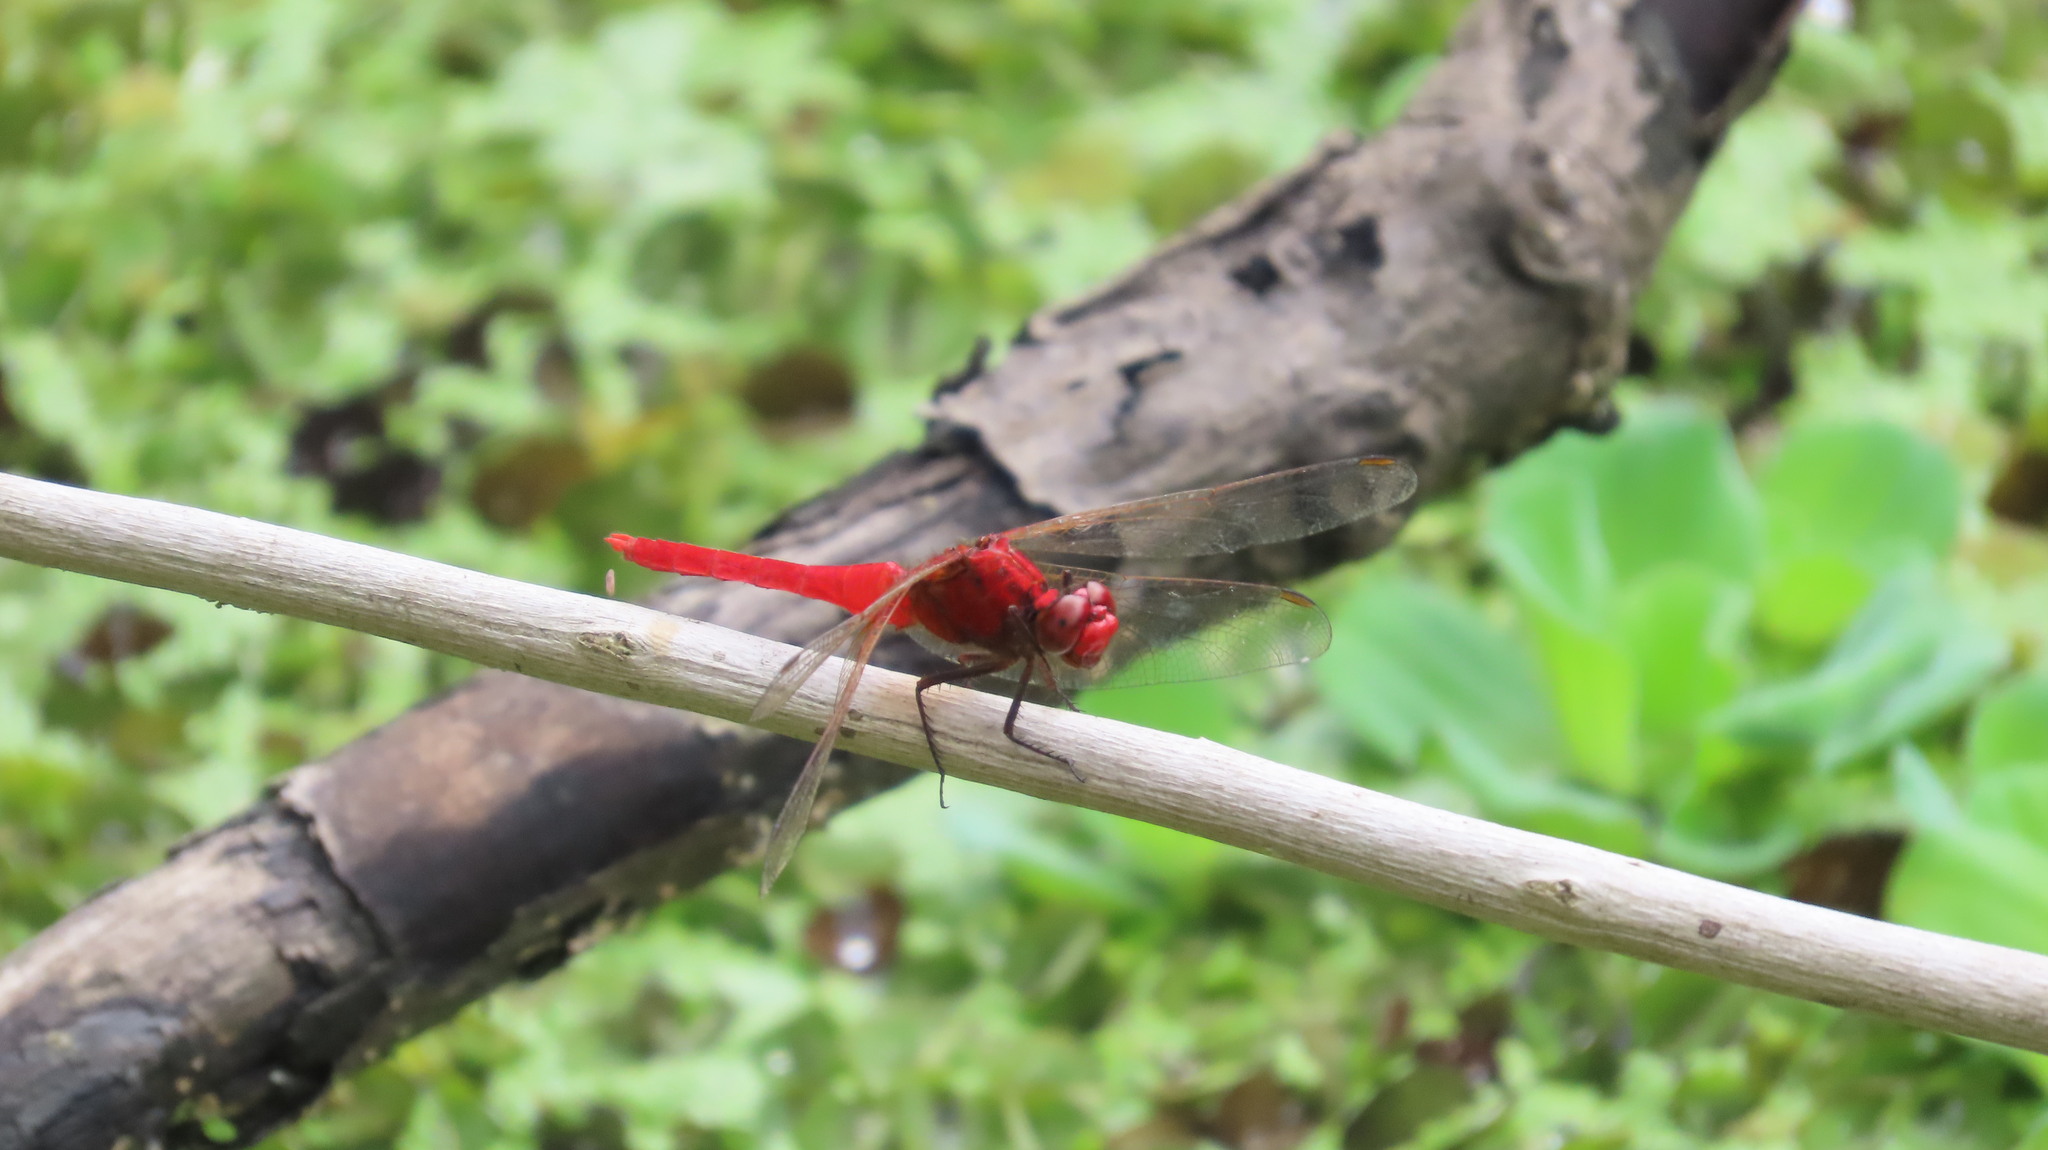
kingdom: Animalia
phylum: Arthropoda
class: Insecta
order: Odonata
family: Libellulidae
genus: Rhodothemis
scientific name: Rhodothemis rufa
